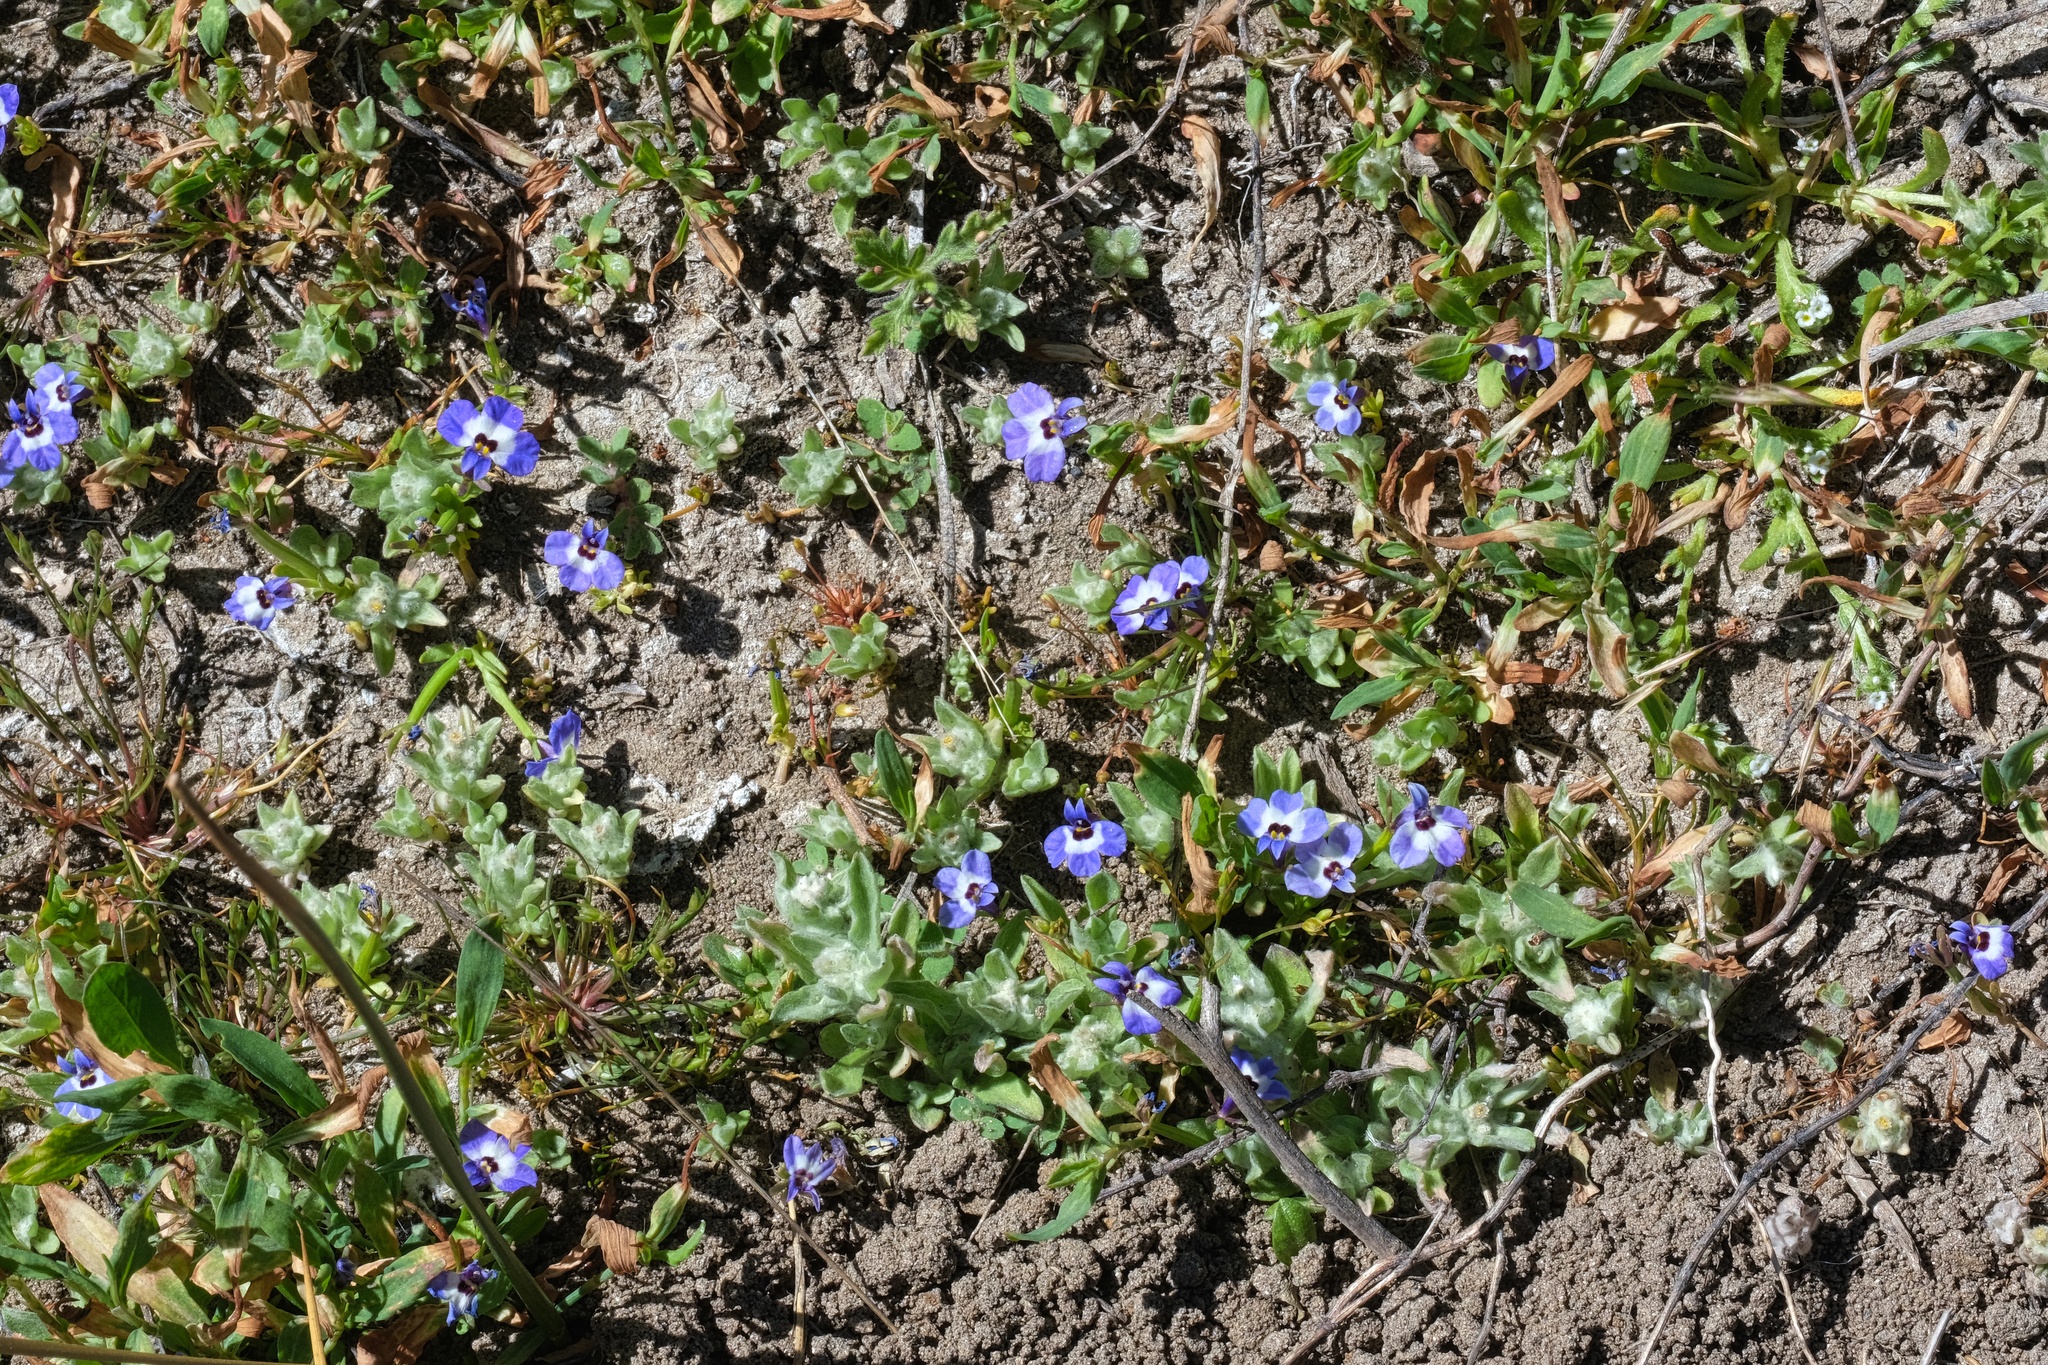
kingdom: Plantae
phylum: Tracheophyta
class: Magnoliopsida
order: Asterales
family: Campanulaceae
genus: Downingia
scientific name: Downingia concolor
